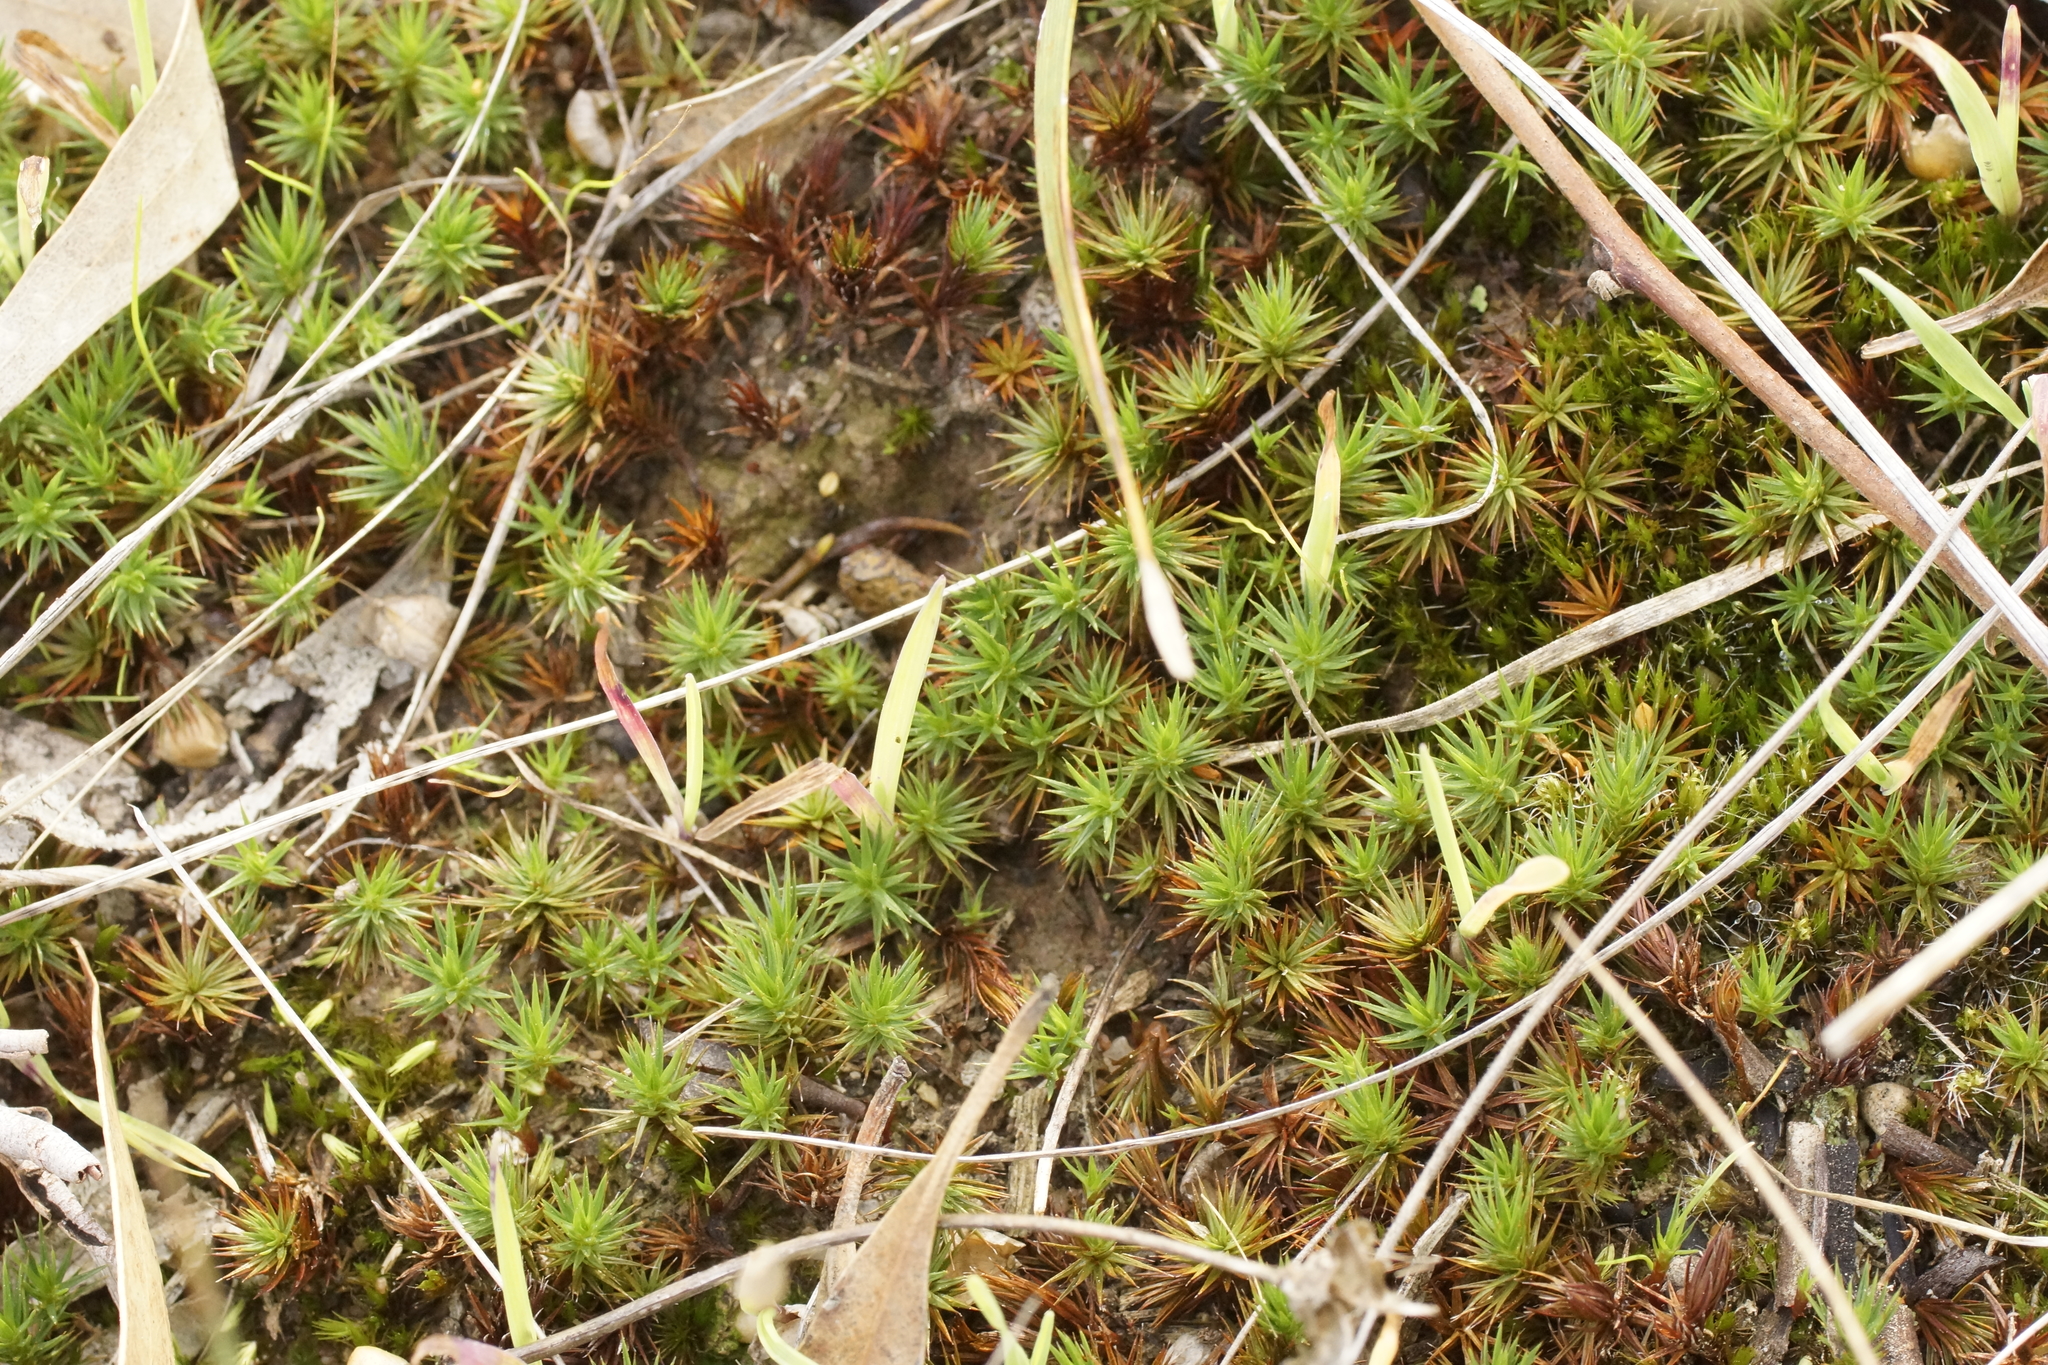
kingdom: Plantae
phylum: Bryophyta
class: Polytrichopsida
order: Polytrichales
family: Polytrichaceae
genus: Polytrichum
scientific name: Polytrichum juniperinum
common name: Juniper haircap moss
